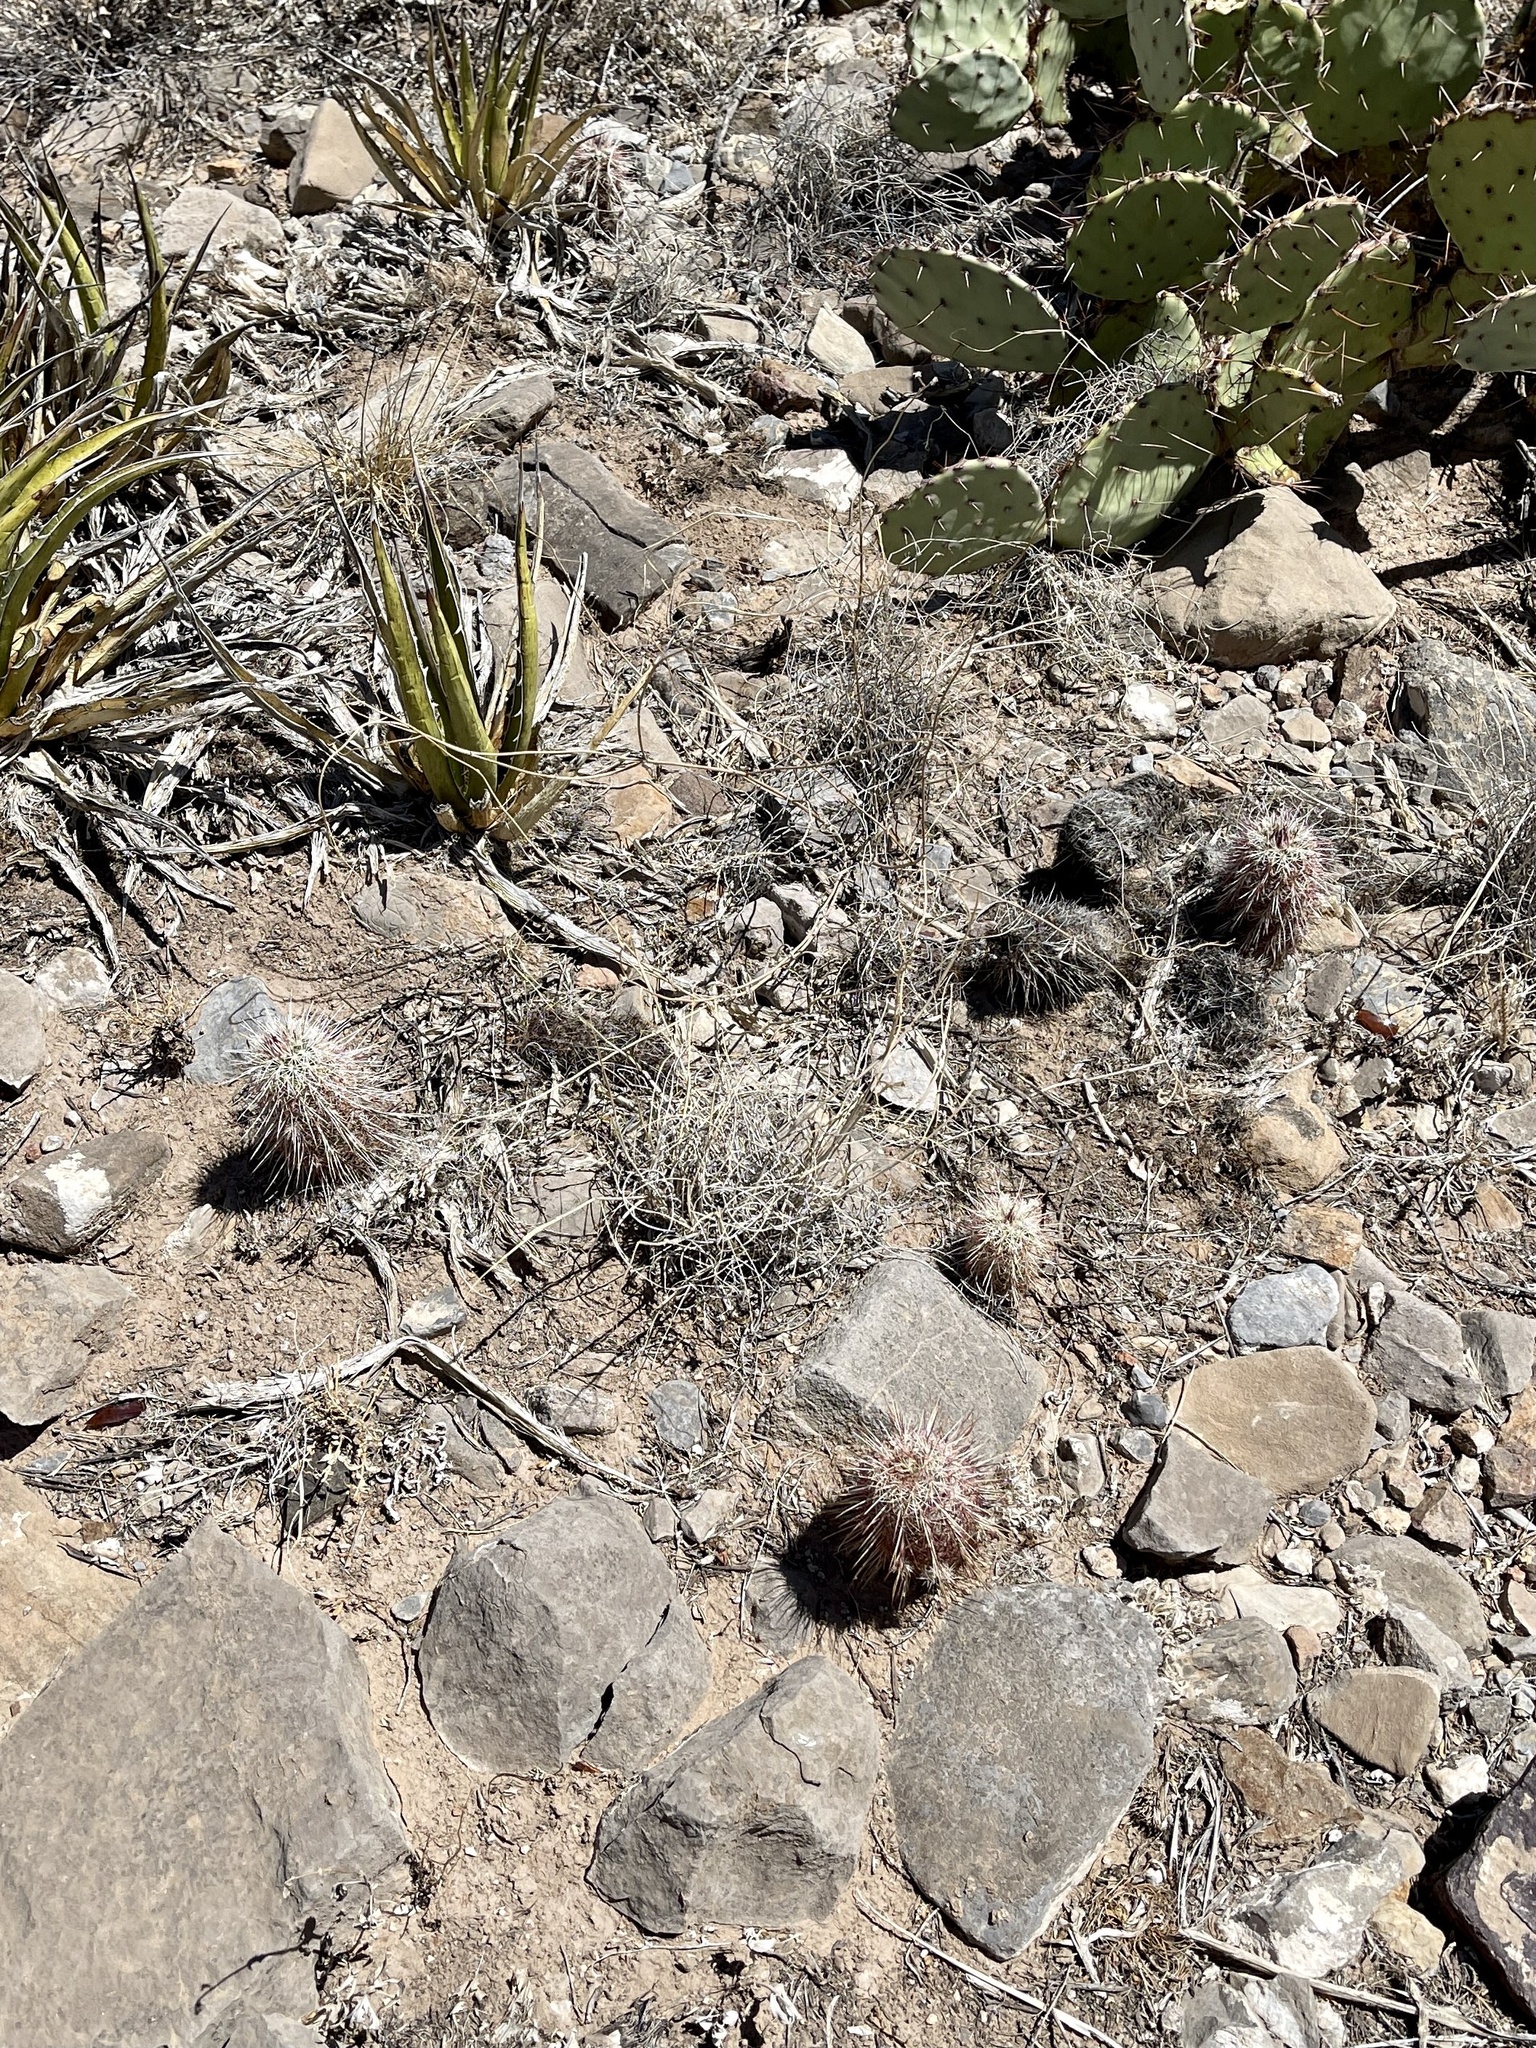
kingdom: Plantae
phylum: Tracheophyta
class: Magnoliopsida
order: Caryophyllales
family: Cactaceae
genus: Echinocereus
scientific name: Echinocereus viridiflorus
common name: Nylon hedgehog cactus
